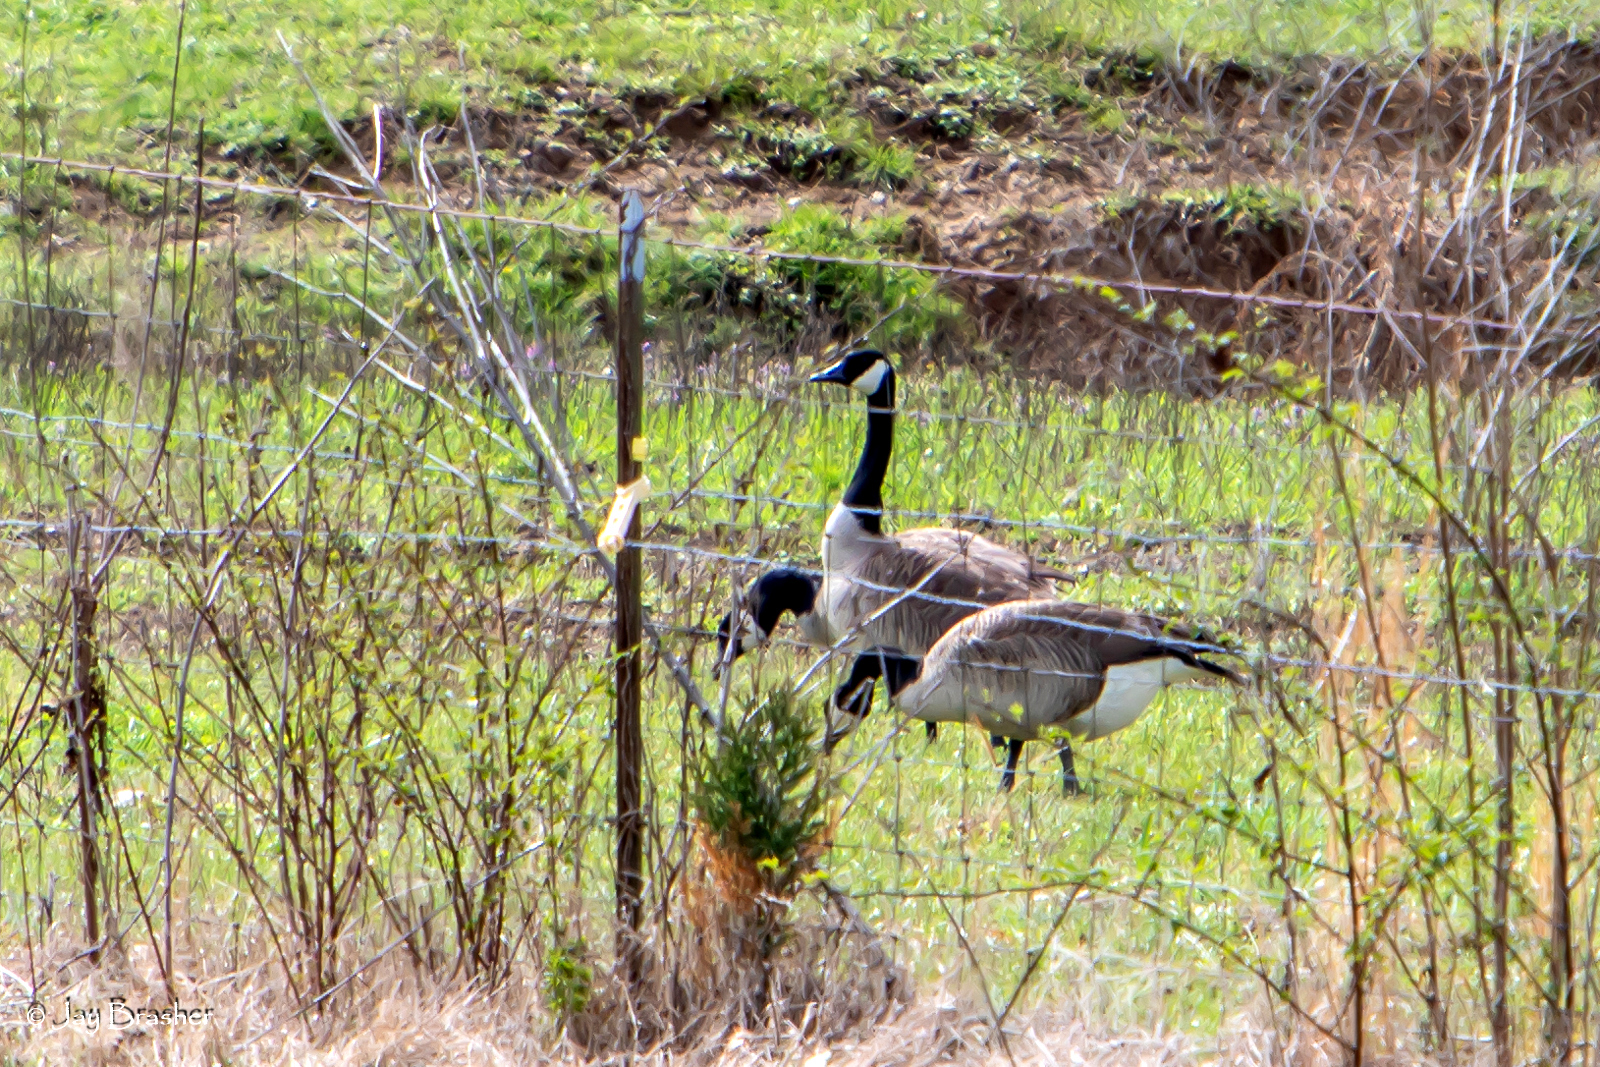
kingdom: Animalia
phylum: Chordata
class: Aves
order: Anseriformes
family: Anatidae
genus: Branta
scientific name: Branta canadensis
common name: Canada goose
